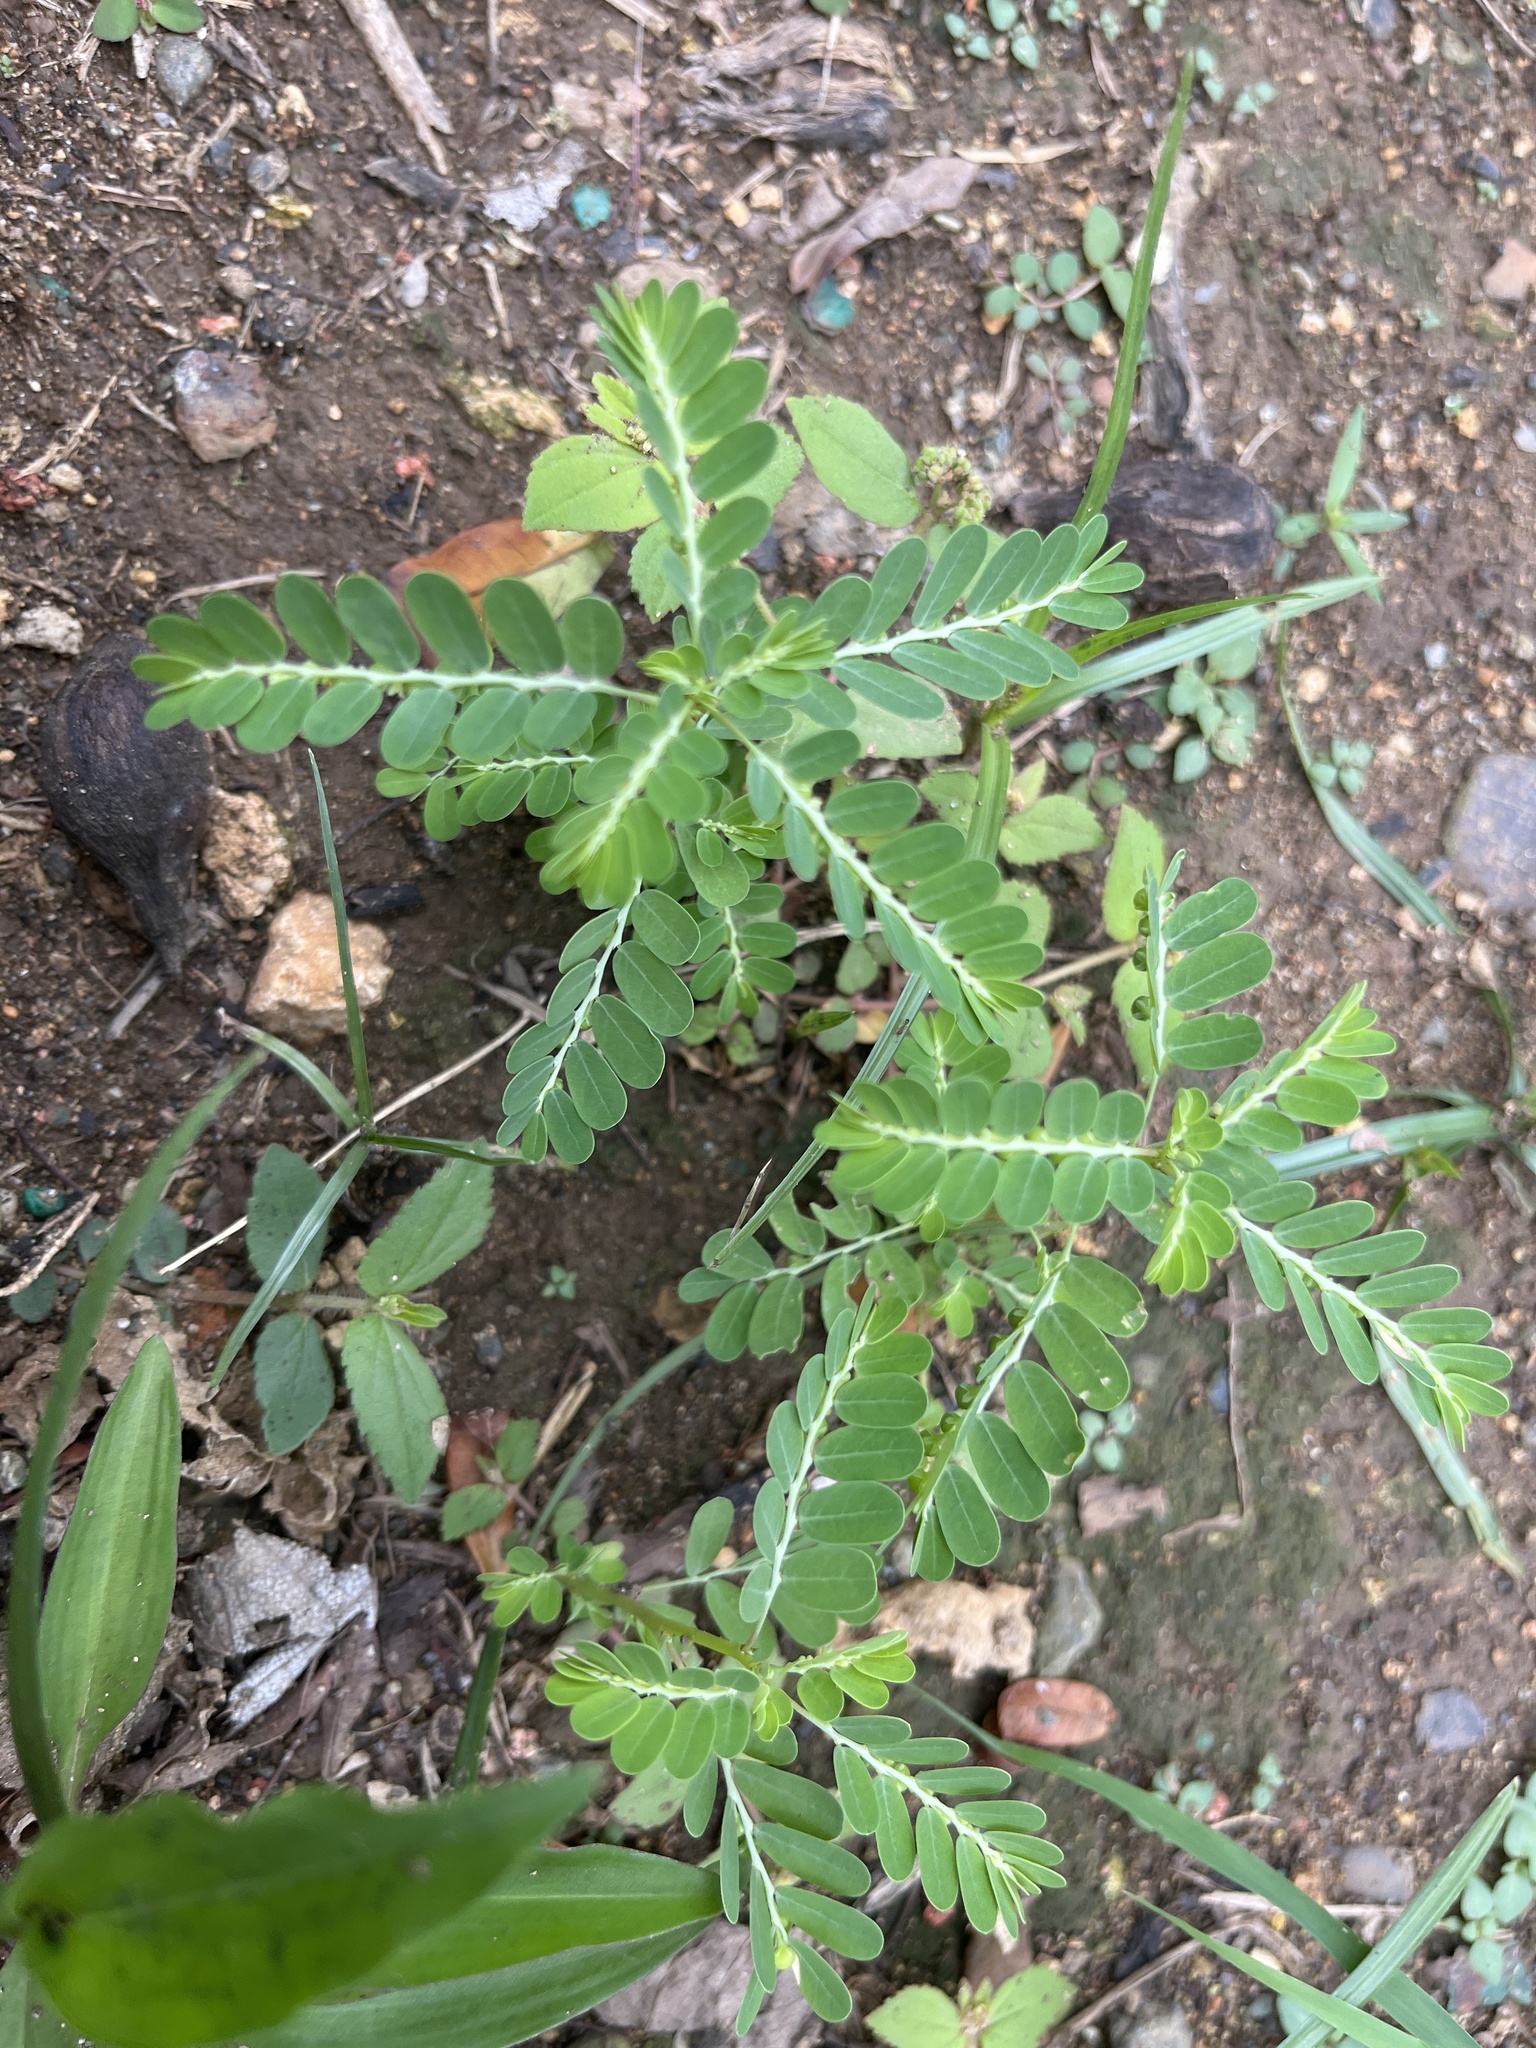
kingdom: Plantae
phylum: Tracheophyta
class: Magnoliopsida
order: Malpighiales
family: Phyllanthaceae
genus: Phyllanthus
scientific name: Phyllanthus amarus
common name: Carry me seed
